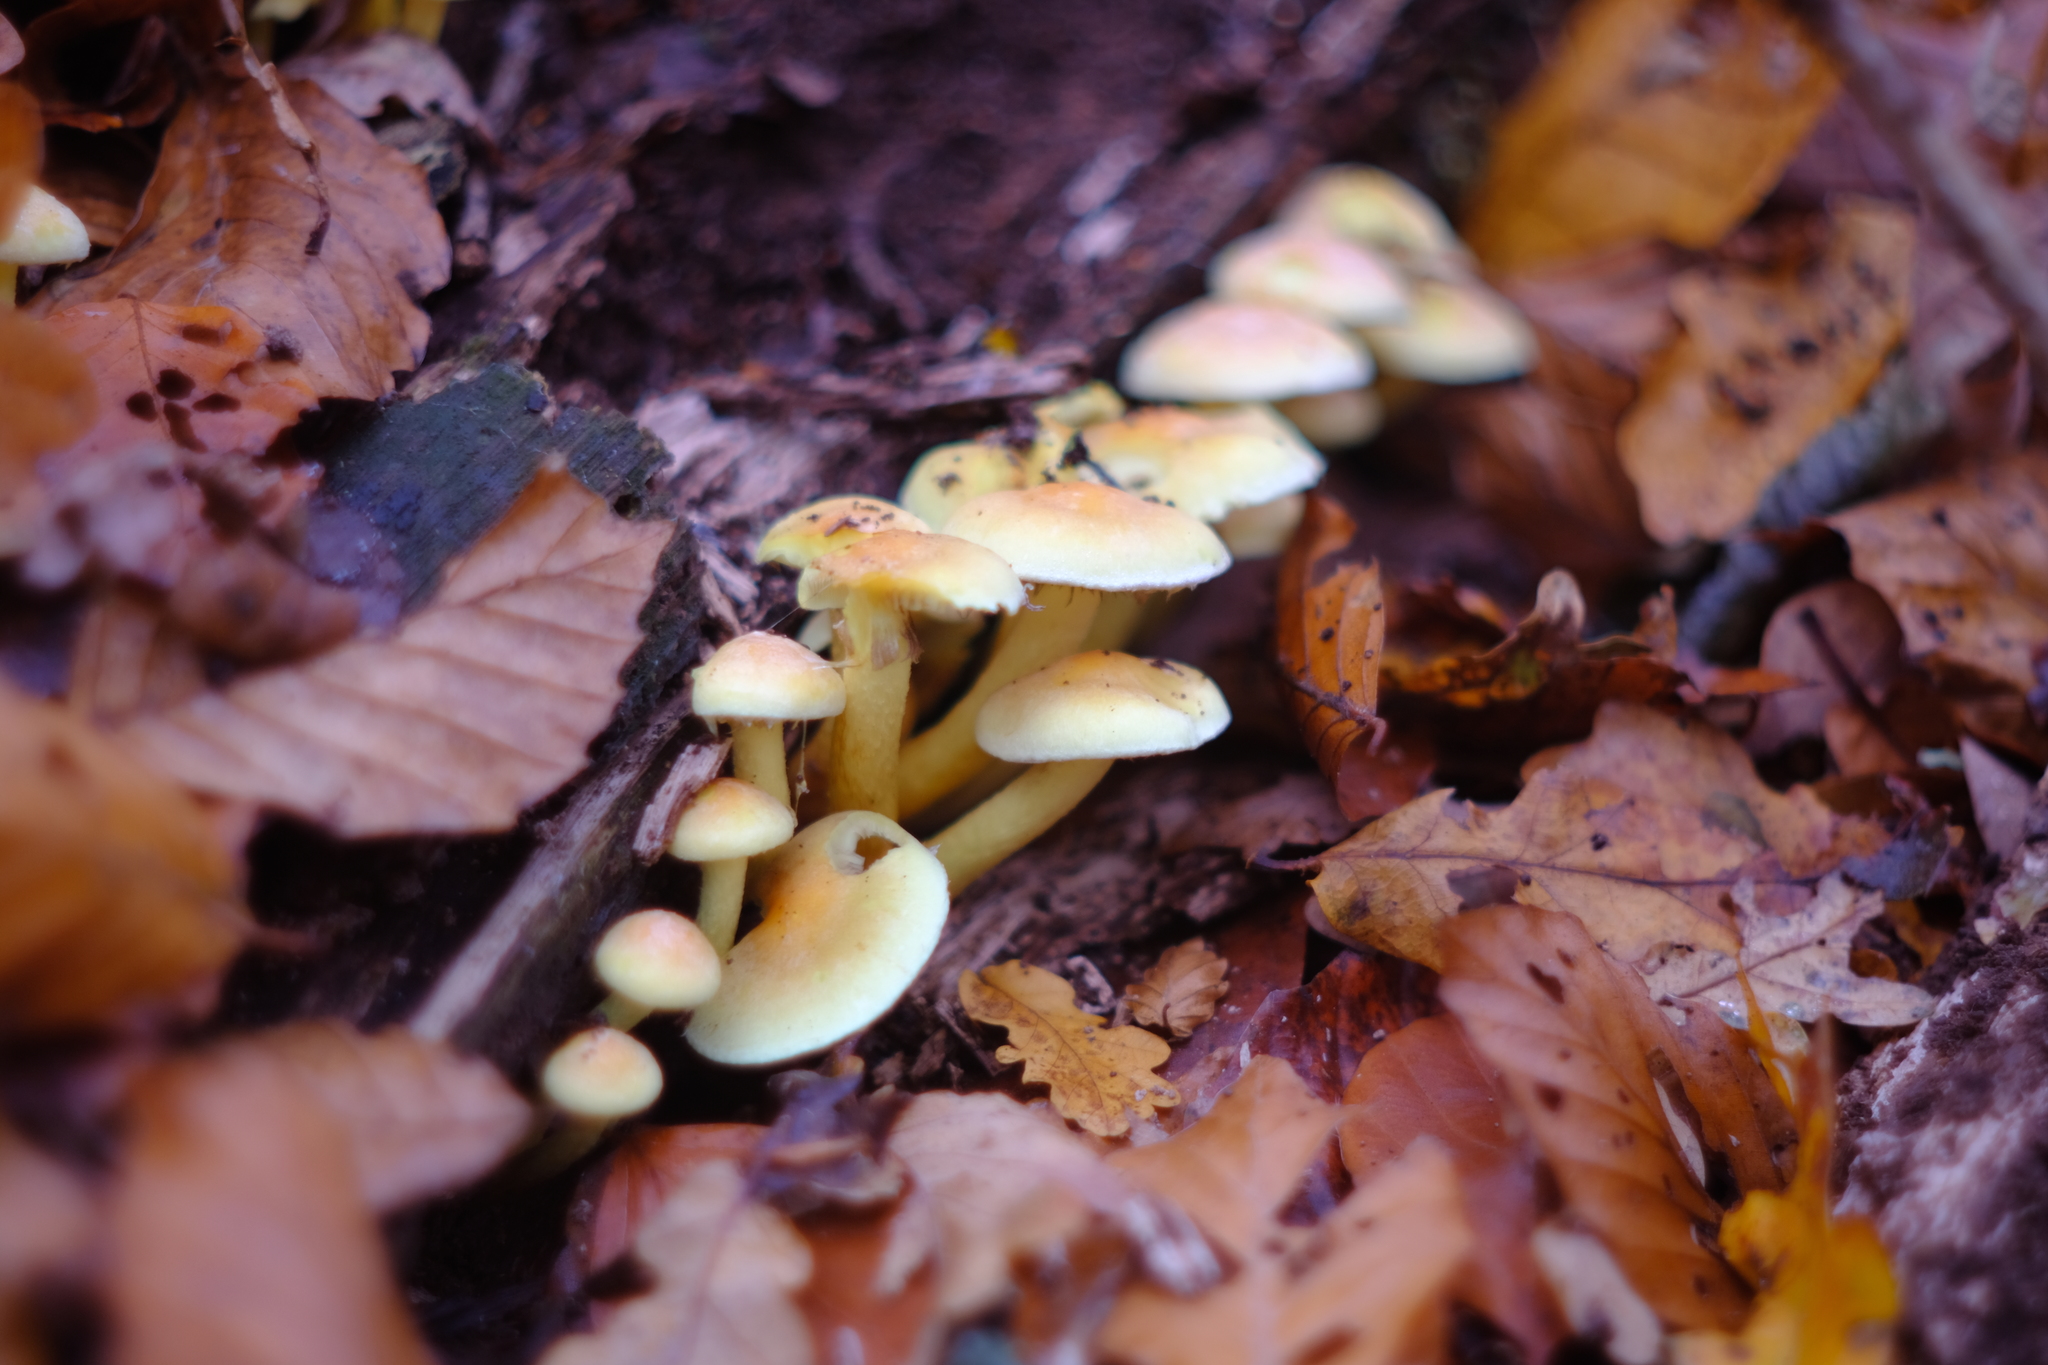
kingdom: Fungi
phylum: Basidiomycota
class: Agaricomycetes
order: Agaricales
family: Strophariaceae
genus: Hypholoma
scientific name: Hypholoma fasciculare
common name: Sulphur tuft
